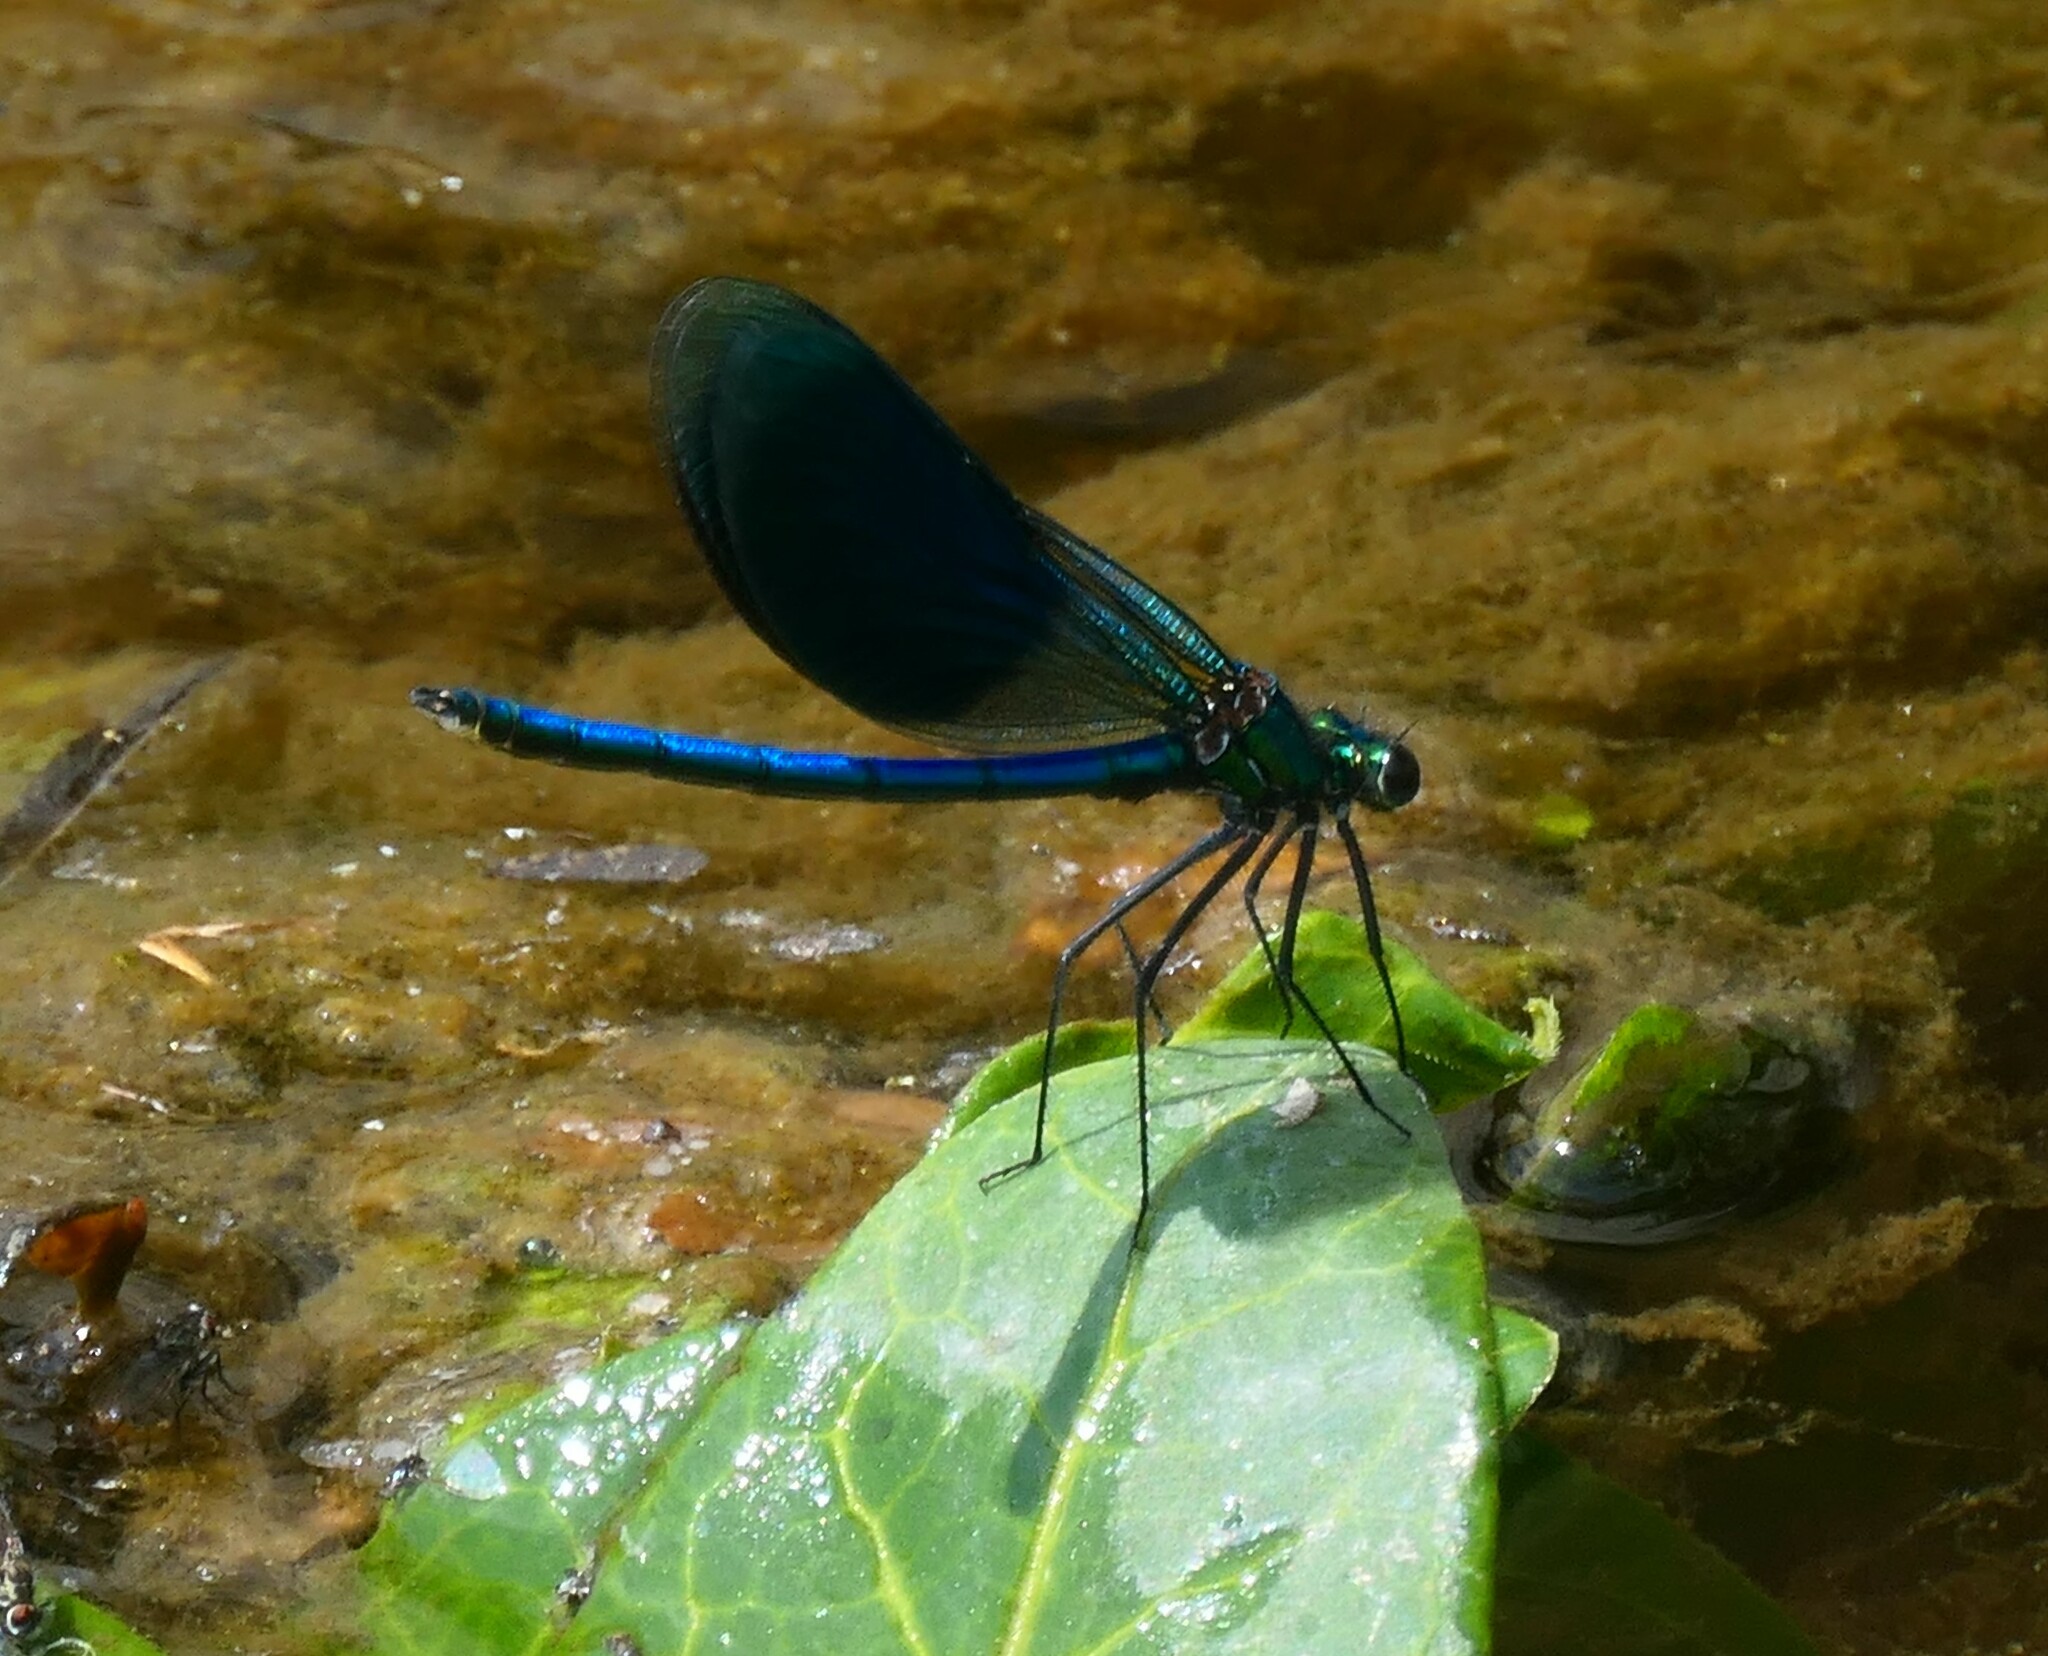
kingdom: Animalia
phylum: Arthropoda
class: Insecta
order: Odonata
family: Calopterygidae
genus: Calopteryx
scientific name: Calopteryx splendens
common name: Banded demoiselle
